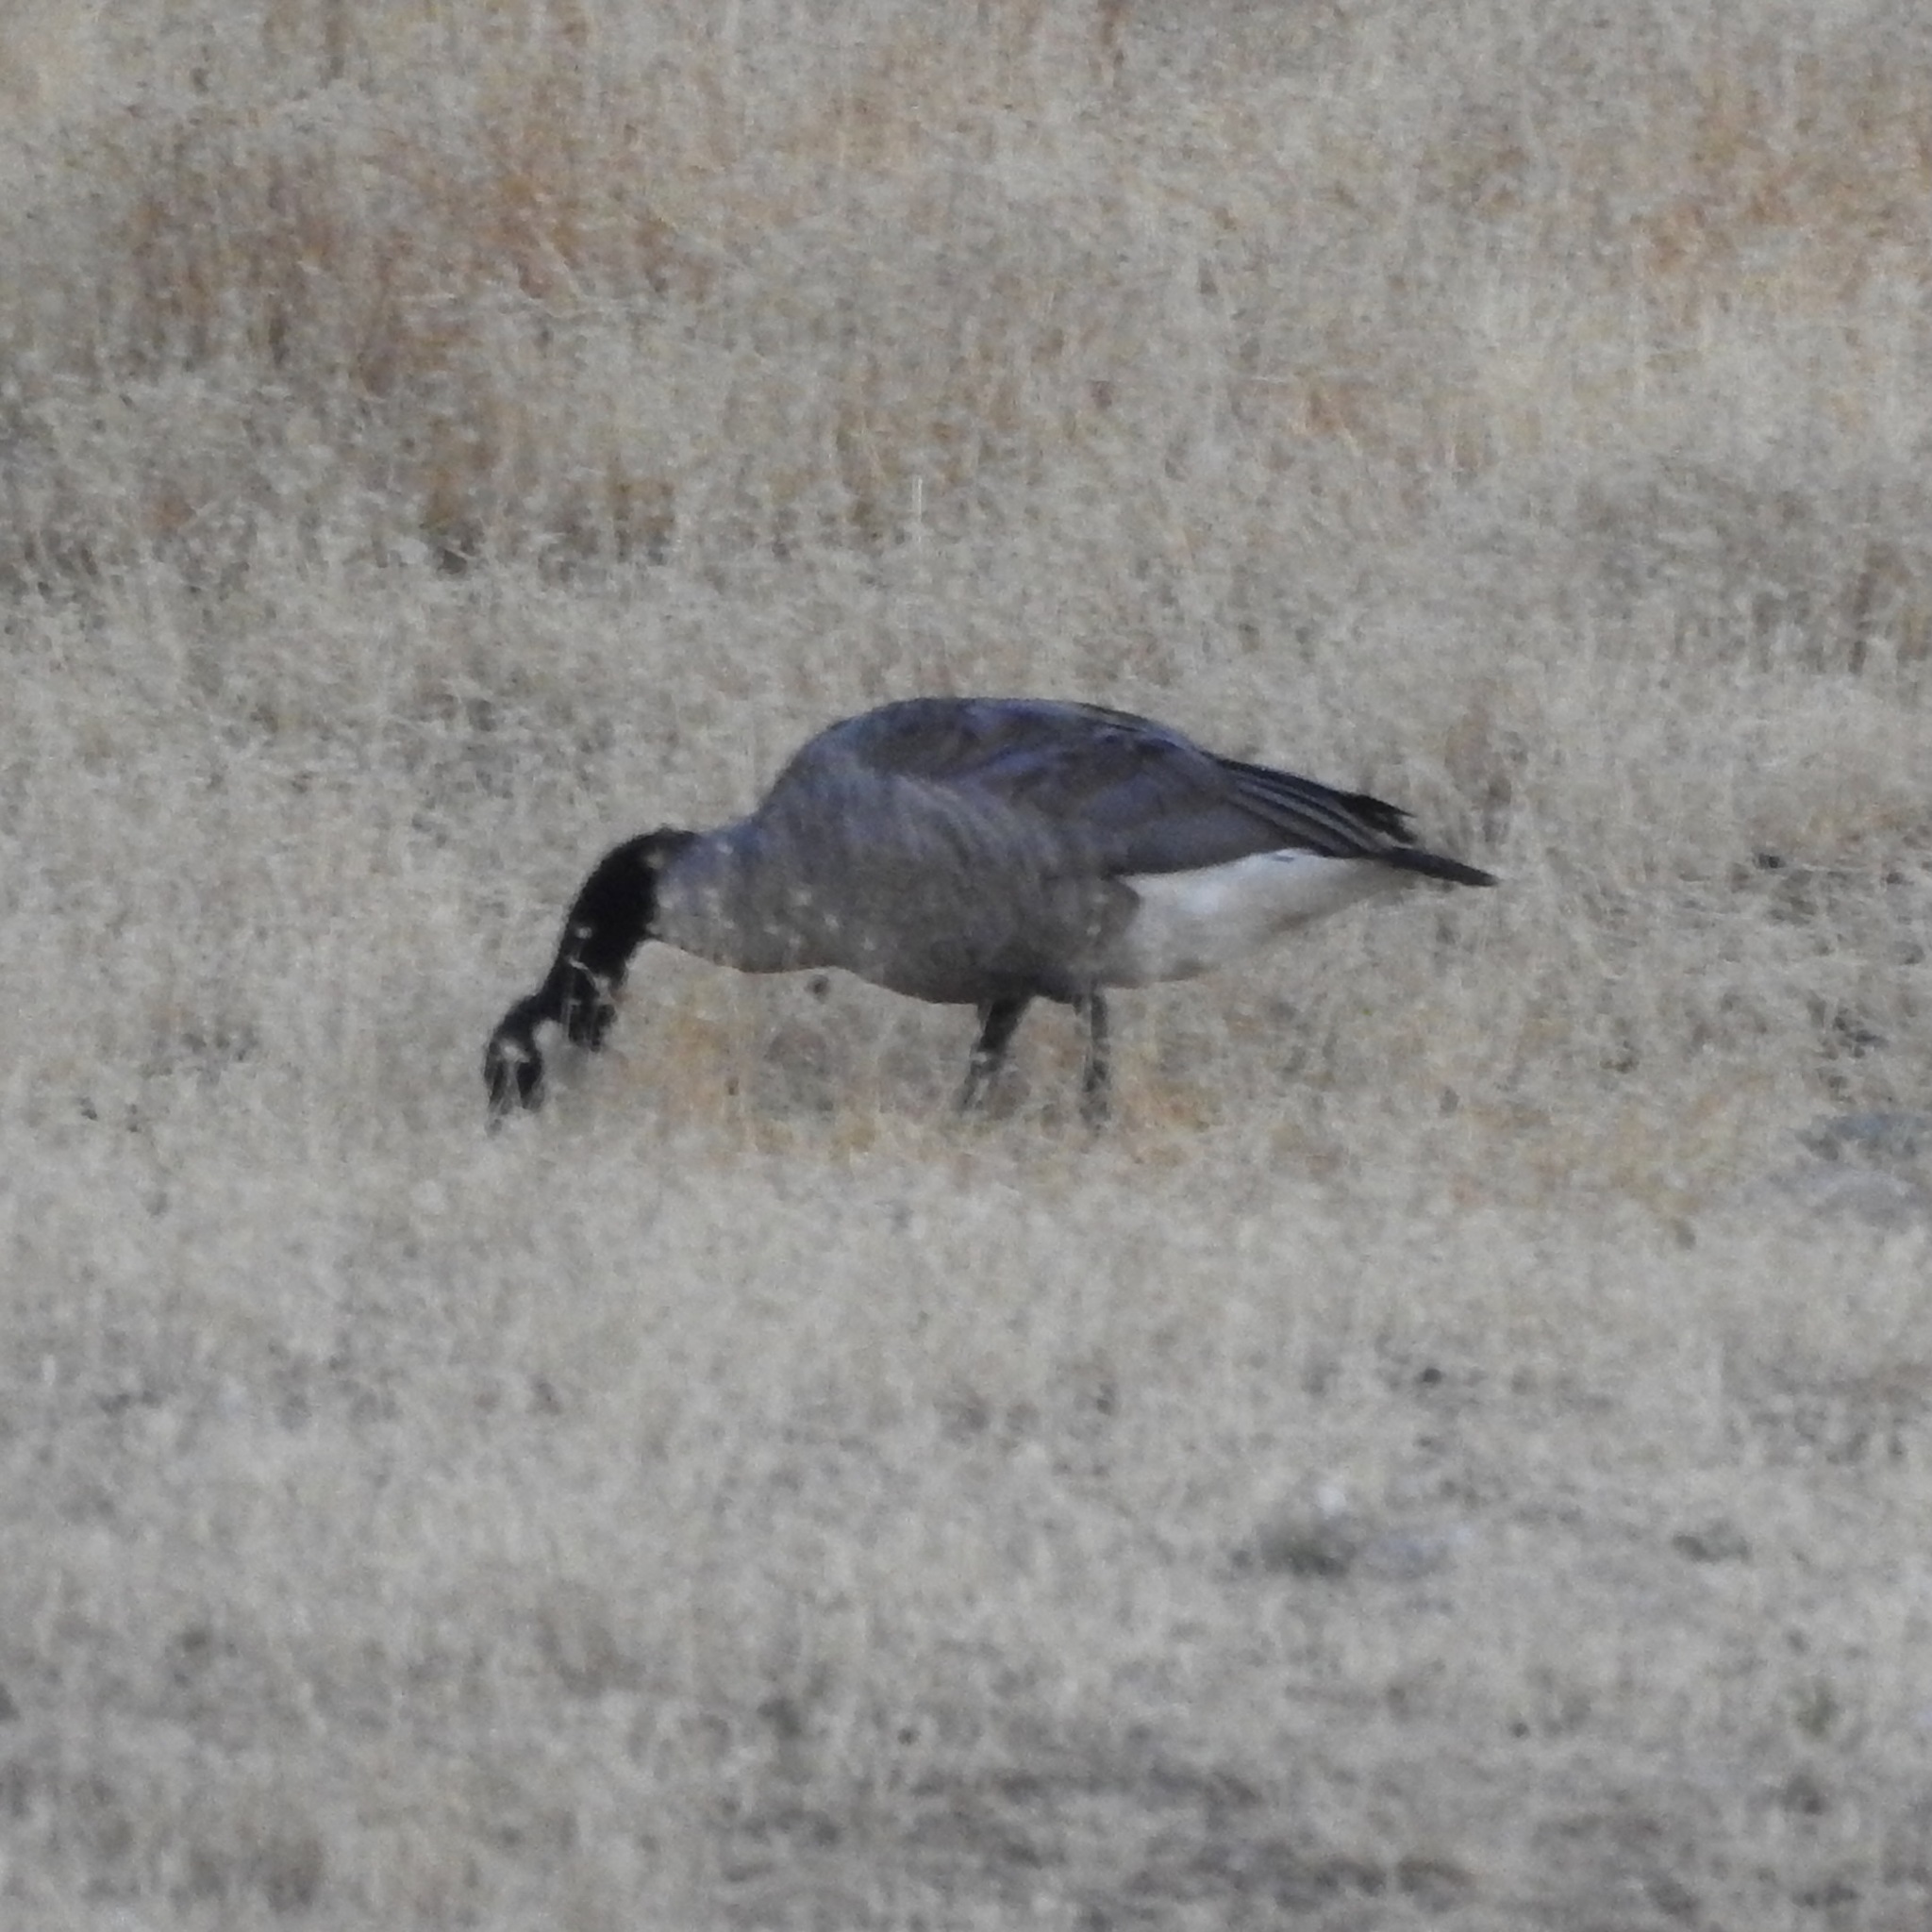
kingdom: Animalia
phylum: Chordata
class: Aves
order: Anseriformes
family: Anatidae
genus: Branta
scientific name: Branta canadensis
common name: Canada goose
